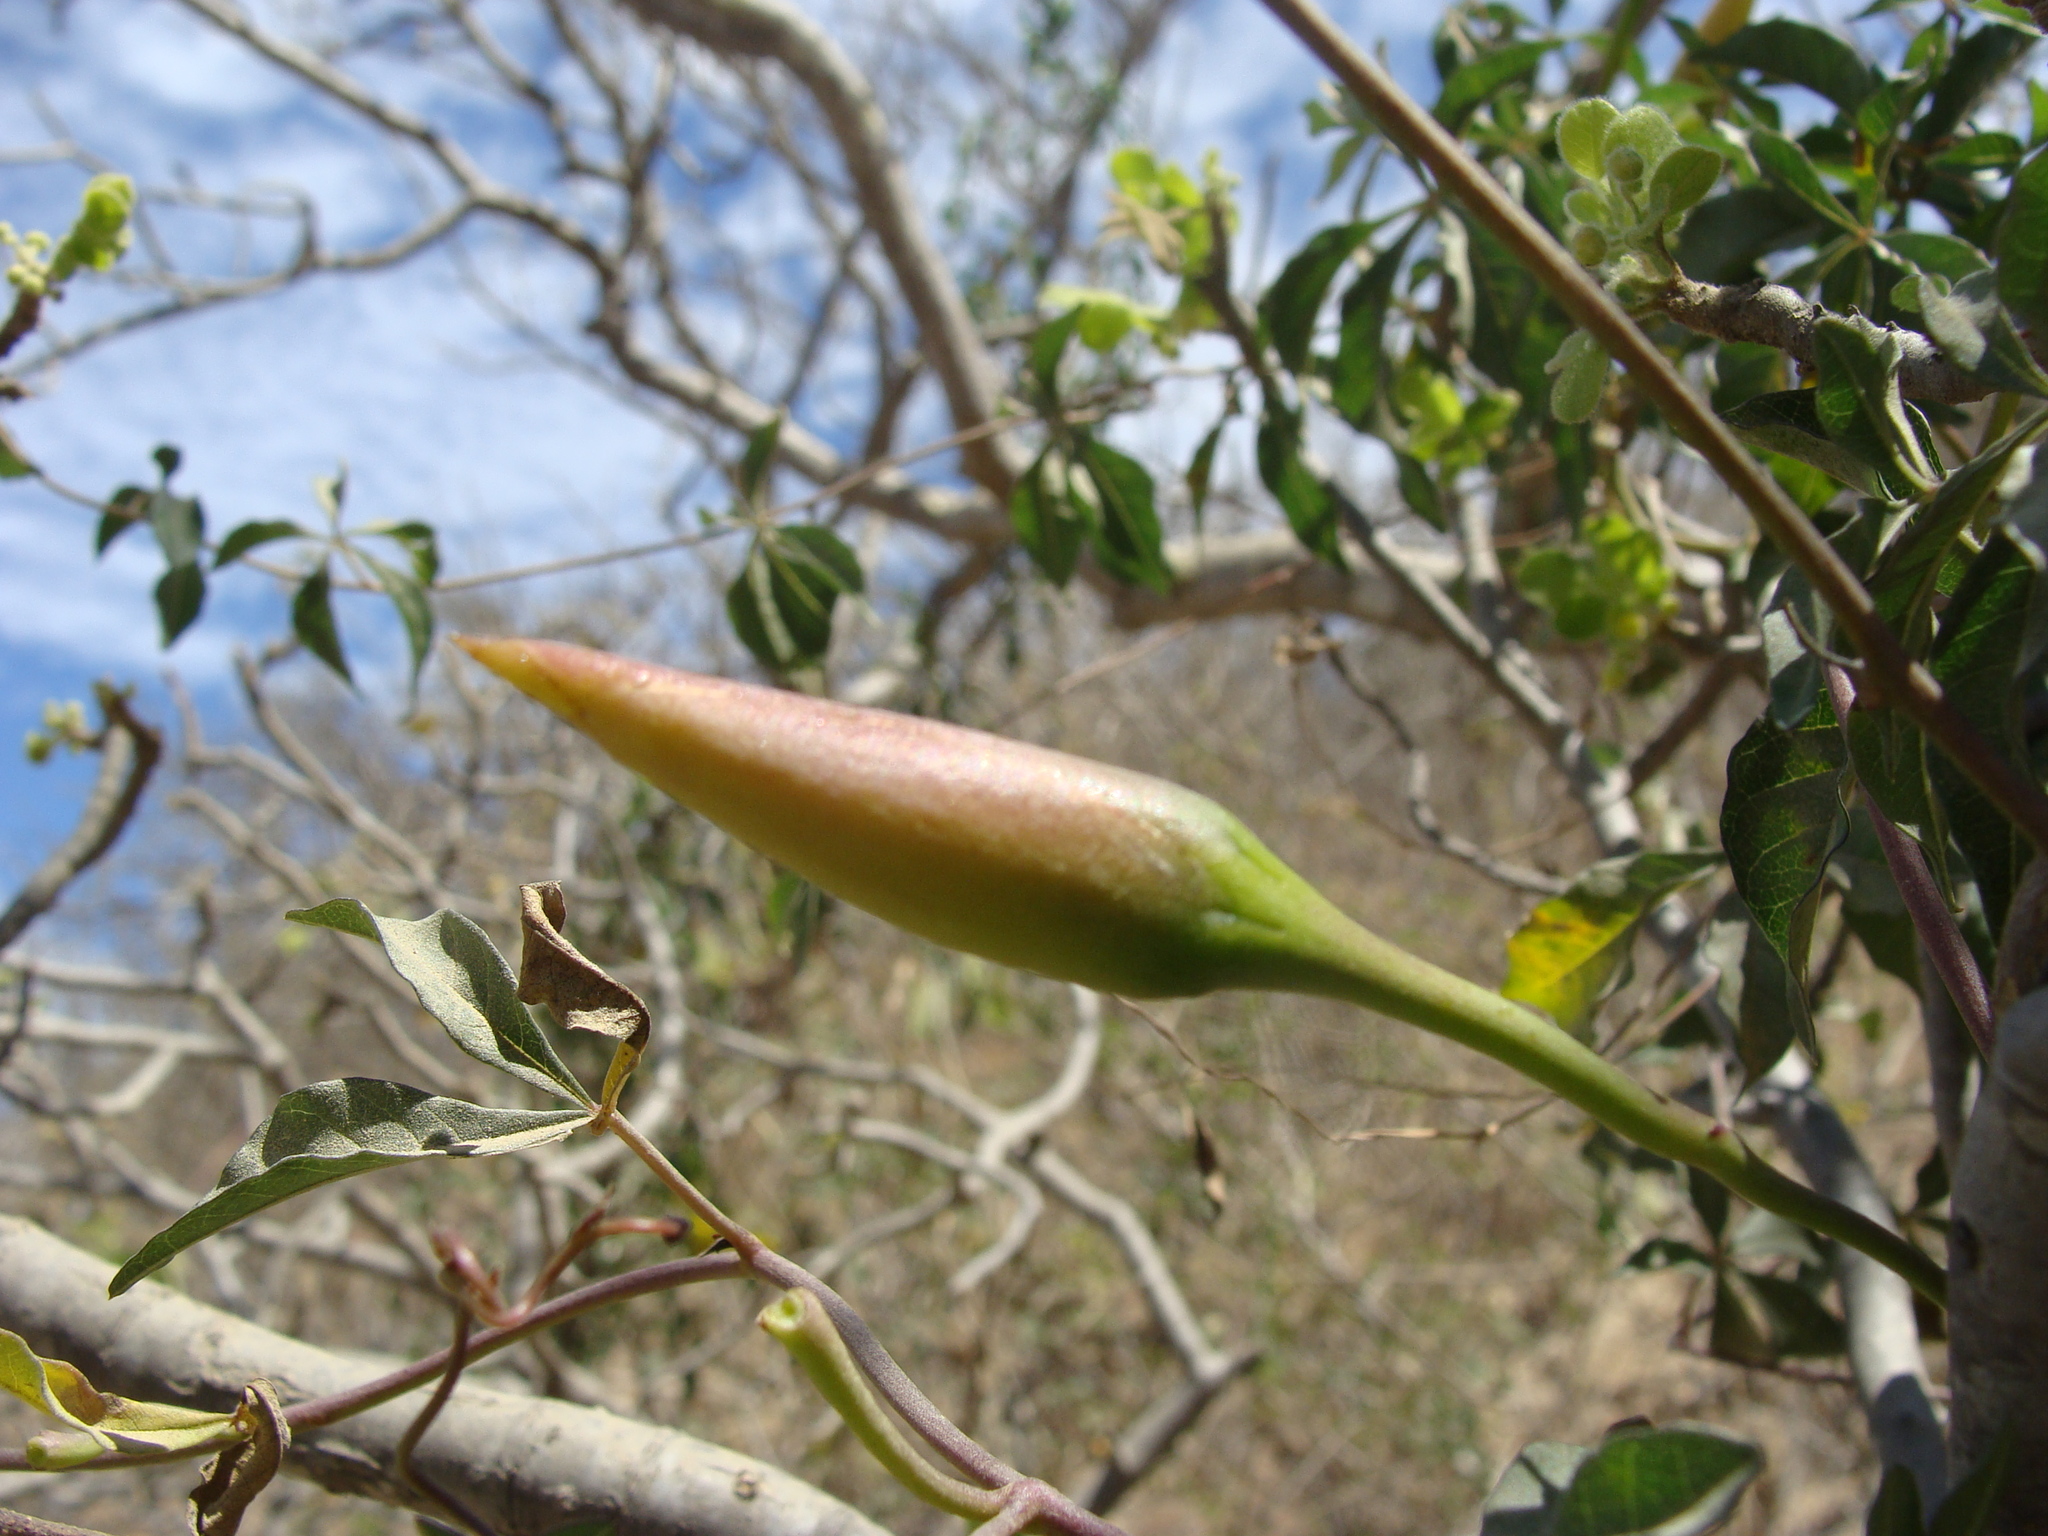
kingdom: Plantae
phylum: Tracheophyta
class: Magnoliopsida
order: Solanales
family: Convolvulaceae
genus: Distimake
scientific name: Distimake aureus
